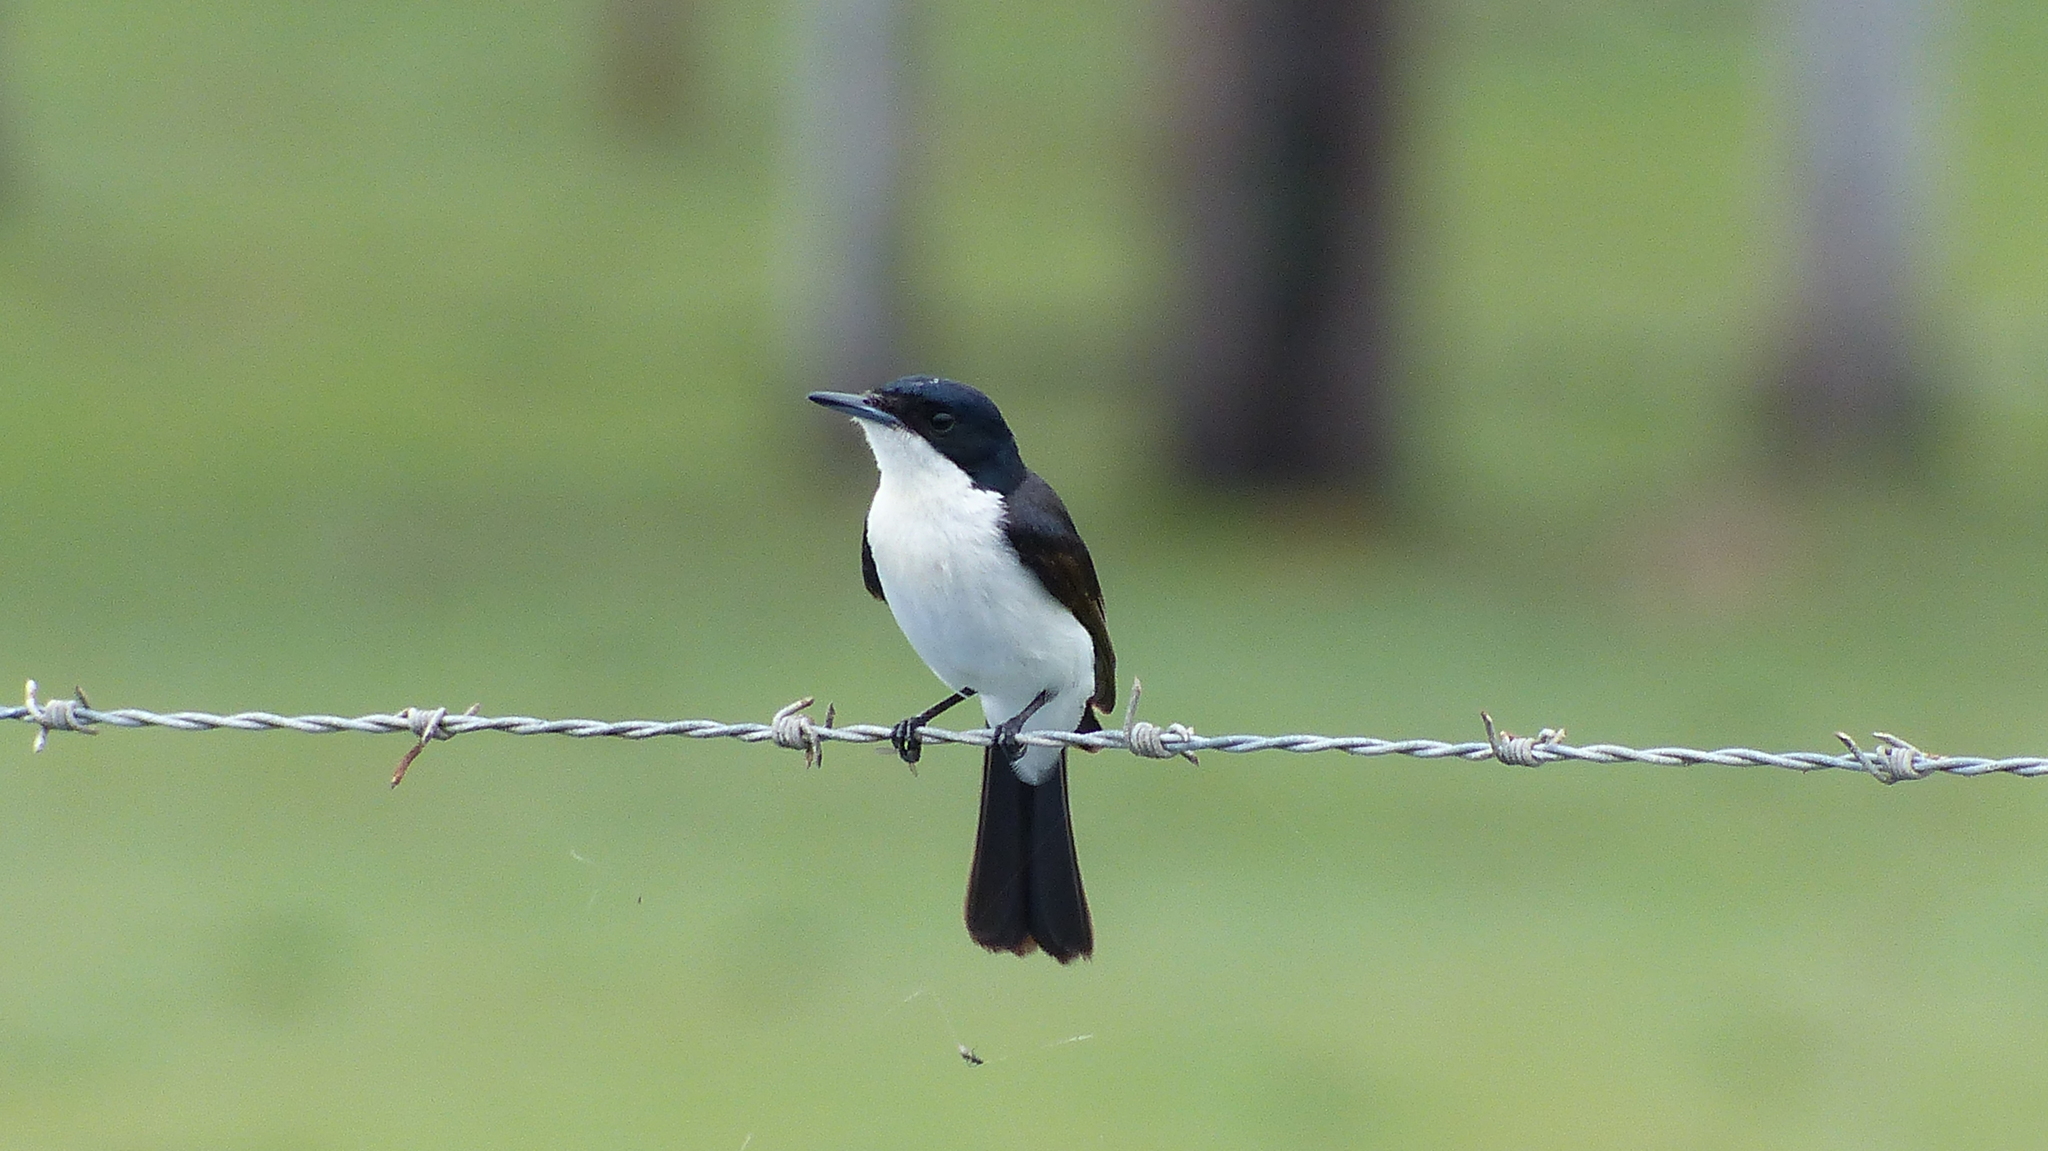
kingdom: Animalia
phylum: Chordata
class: Aves
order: Passeriformes
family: Monarchidae
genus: Myiagra
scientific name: Myiagra inquieta
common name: Restless flycatcher
